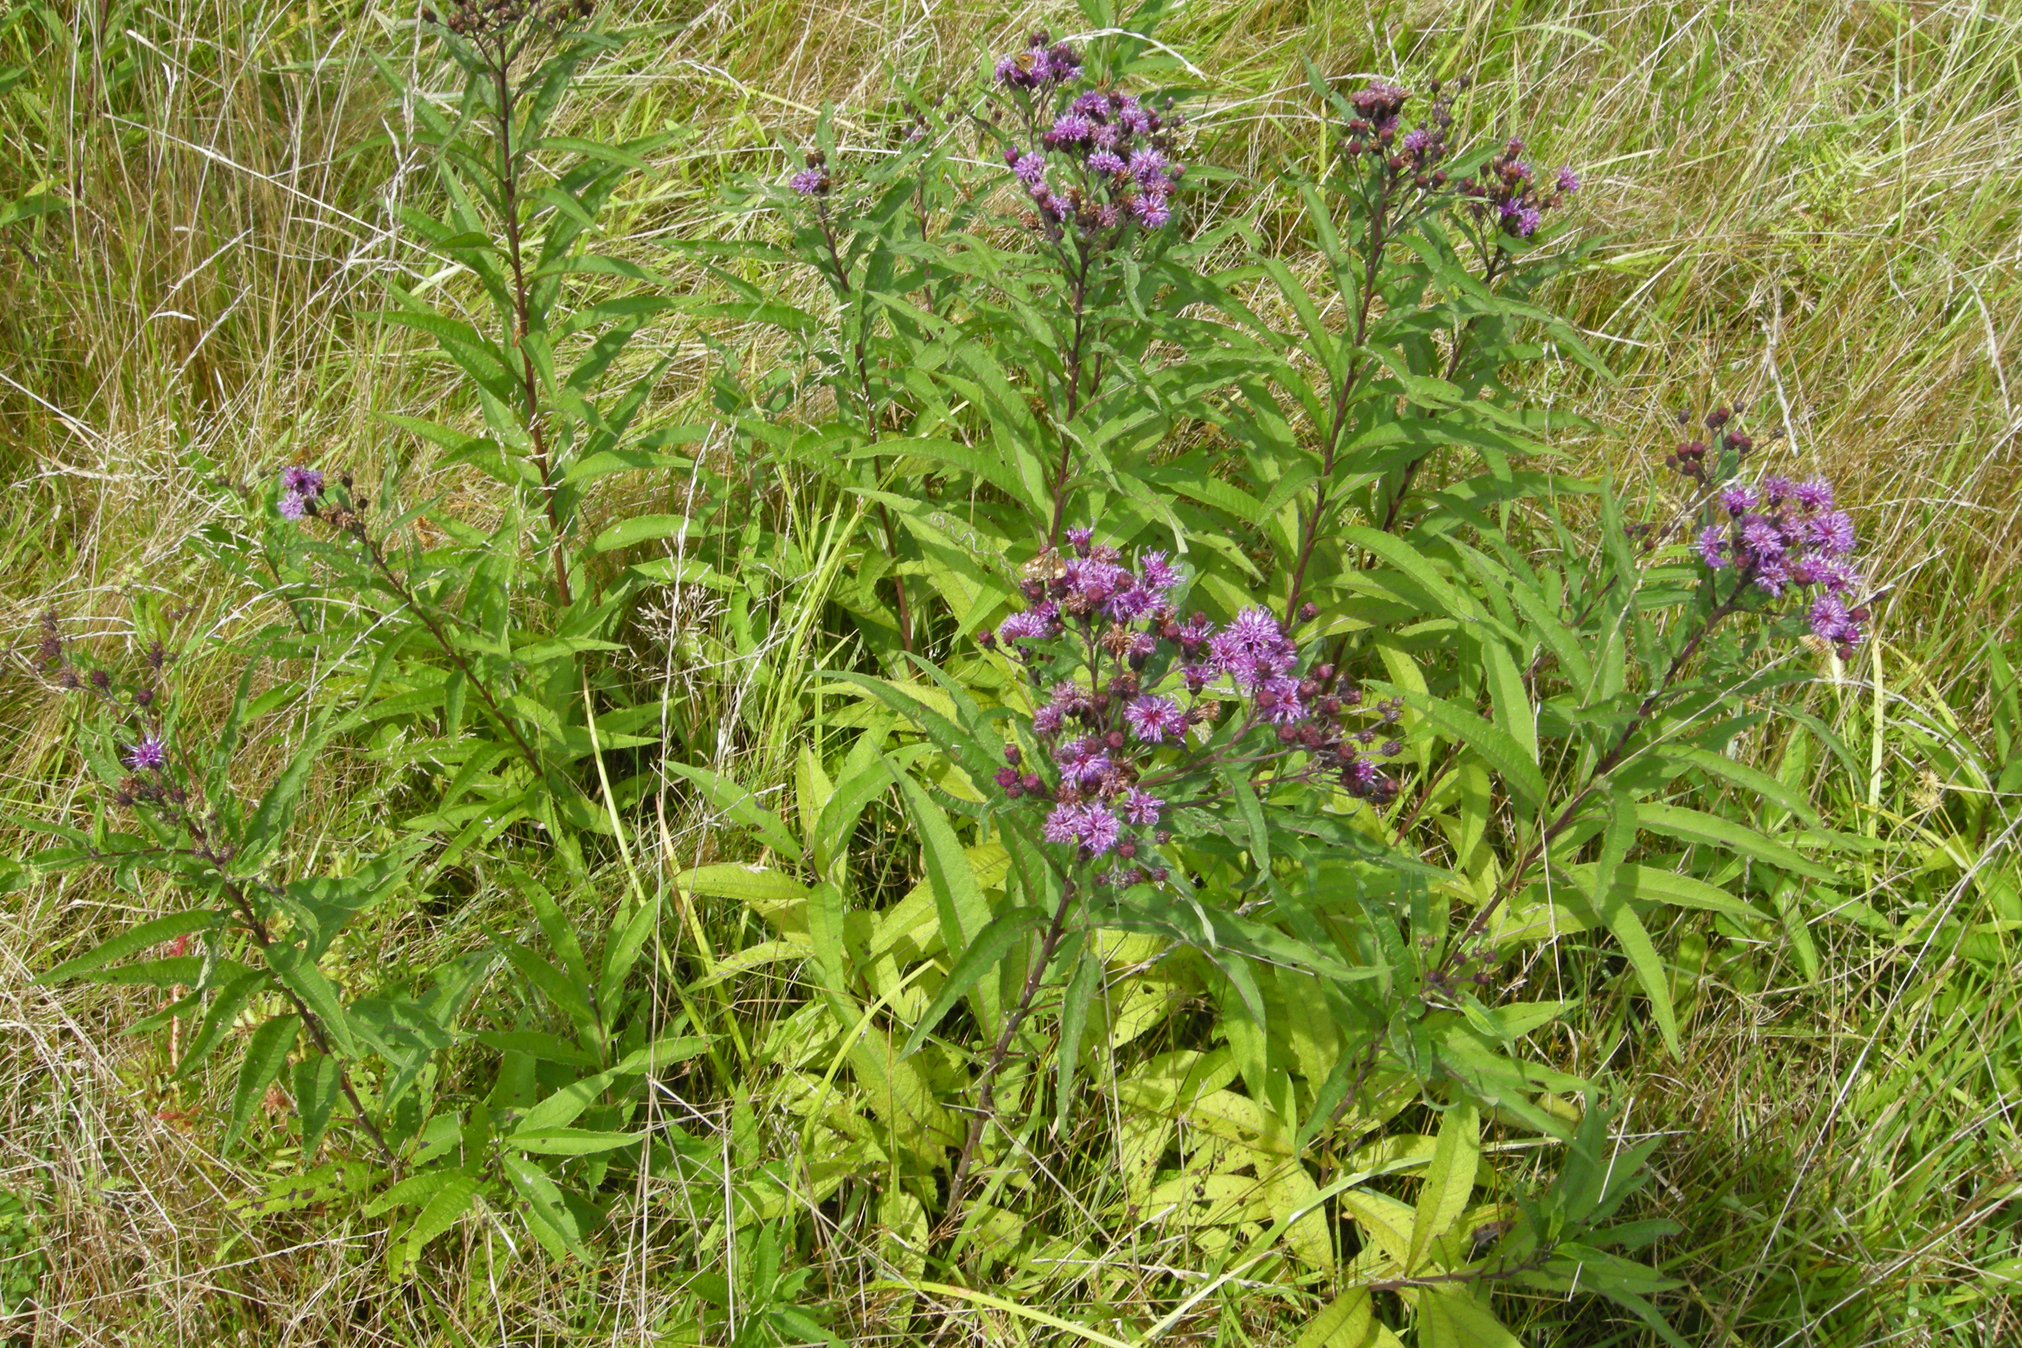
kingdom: Plantae
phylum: Tracheophyta
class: Magnoliopsida
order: Asterales
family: Asteraceae
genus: Vernonia
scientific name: Vernonia noveboracensis
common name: New york ironweed
